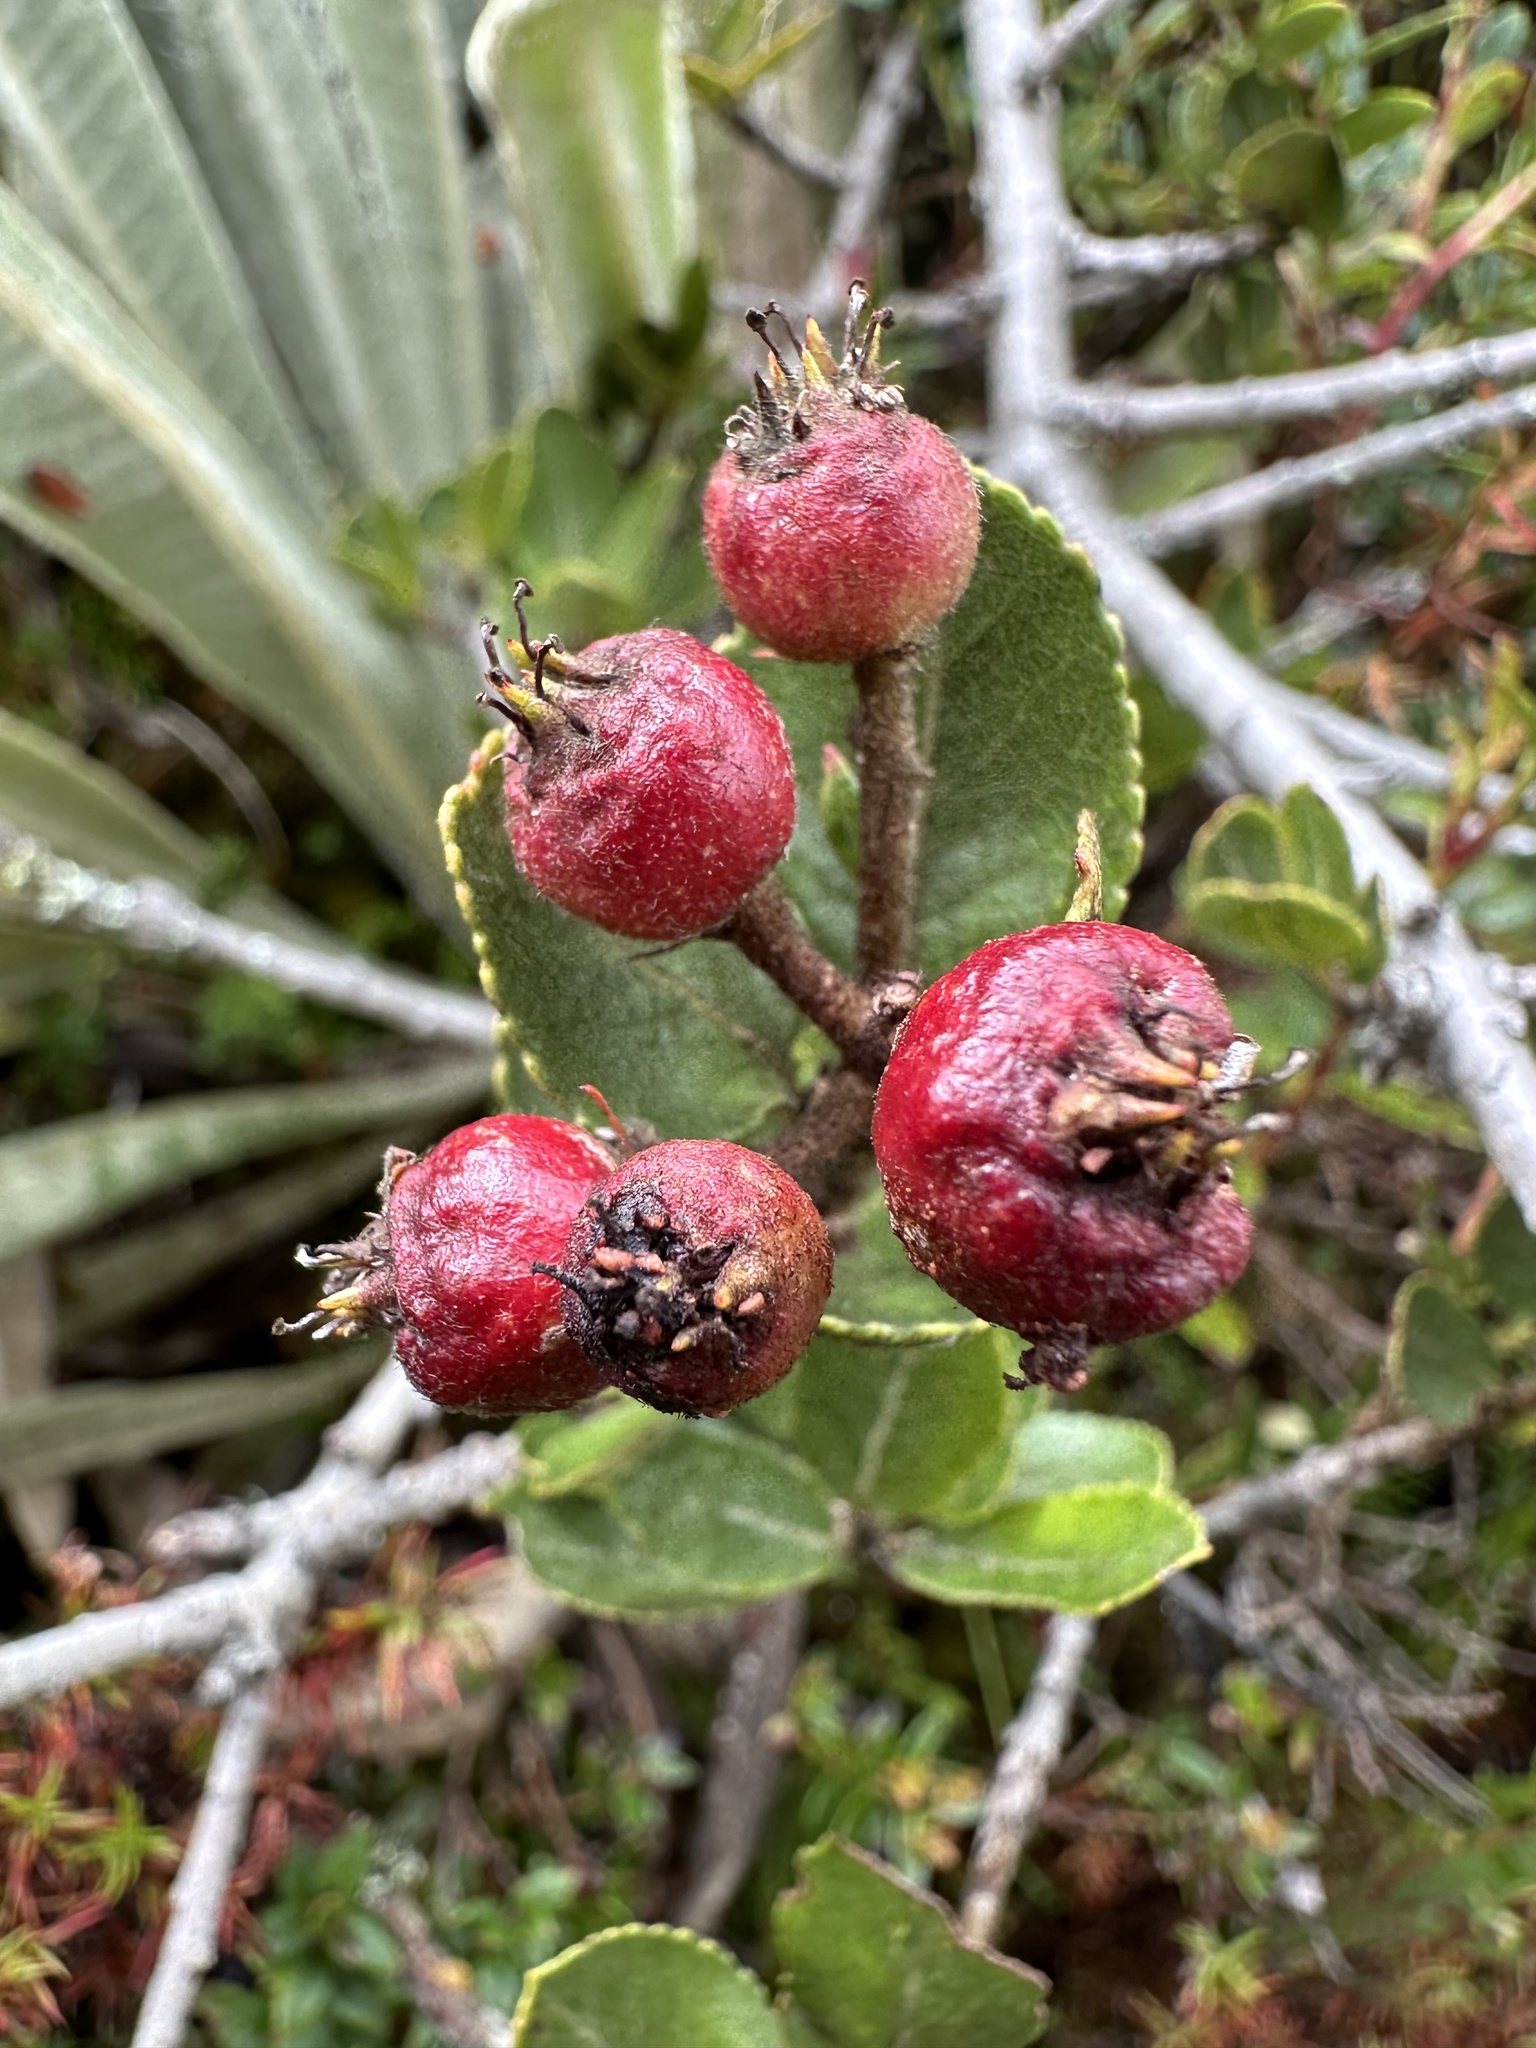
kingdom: Plantae
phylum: Tracheophyta
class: Magnoliopsida
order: Rosales
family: Rosaceae
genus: Hesperomeles
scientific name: Hesperomeles goudotiana
